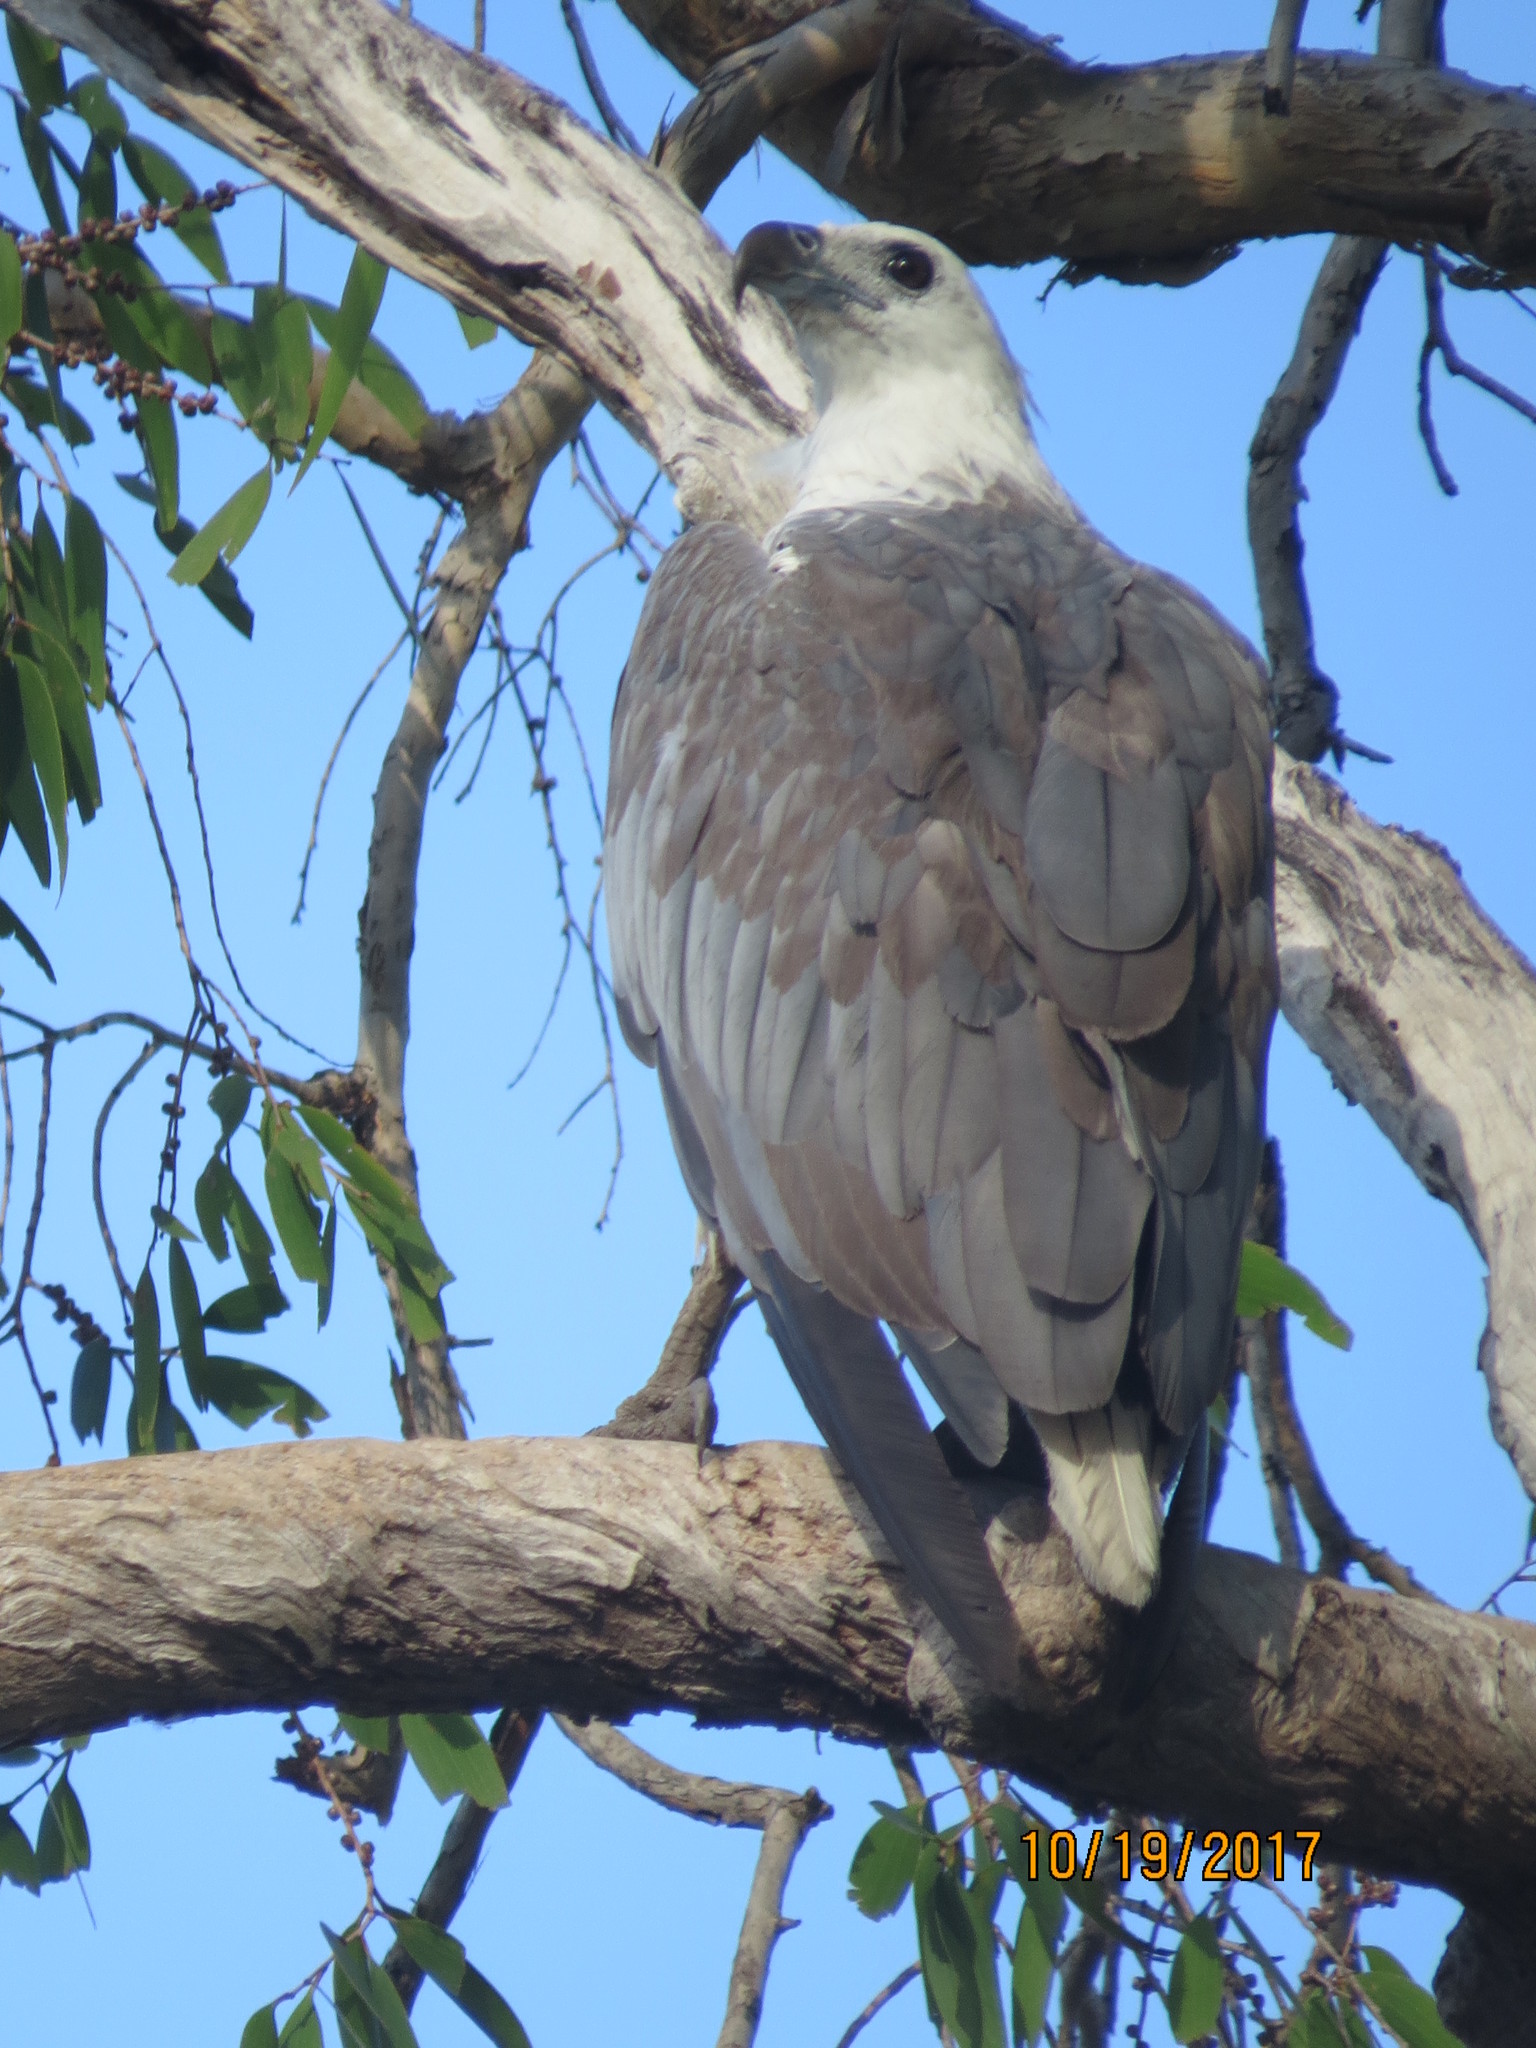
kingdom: Animalia
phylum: Chordata
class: Aves
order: Accipitriformes
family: Accipitridae
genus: Haliaeetus
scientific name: Haliaeetus leucogaster
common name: White-bellied sea eagle
